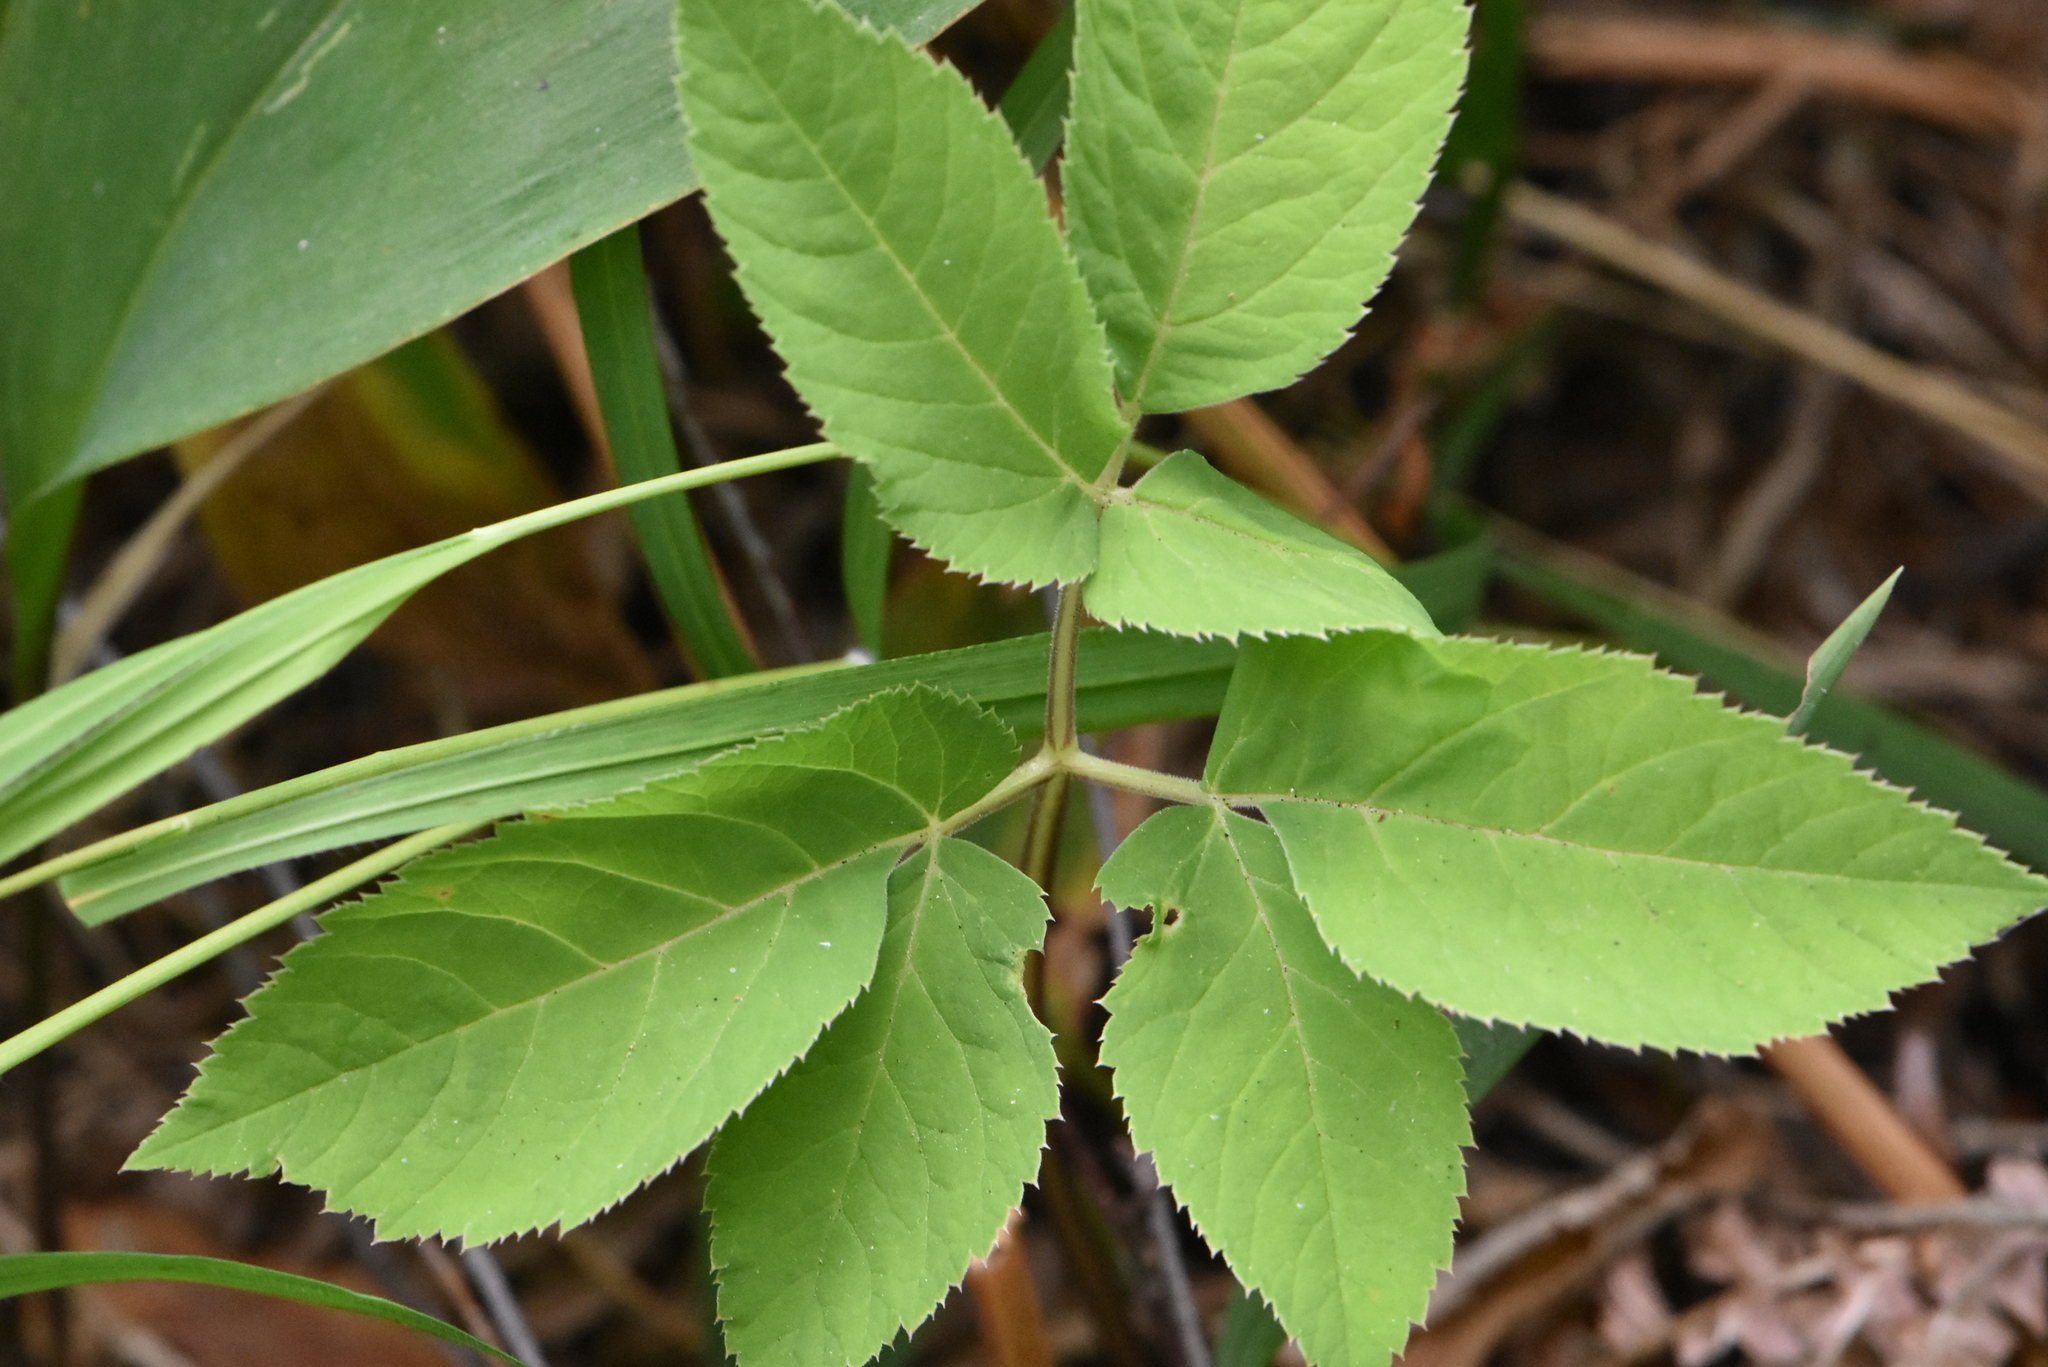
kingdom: Plantae
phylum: Tracheophyta
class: Magnoliopsida
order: Apiales
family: Apiaceae
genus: Aegopodium
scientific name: Aegopodium podagraria
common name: Ground-elder
